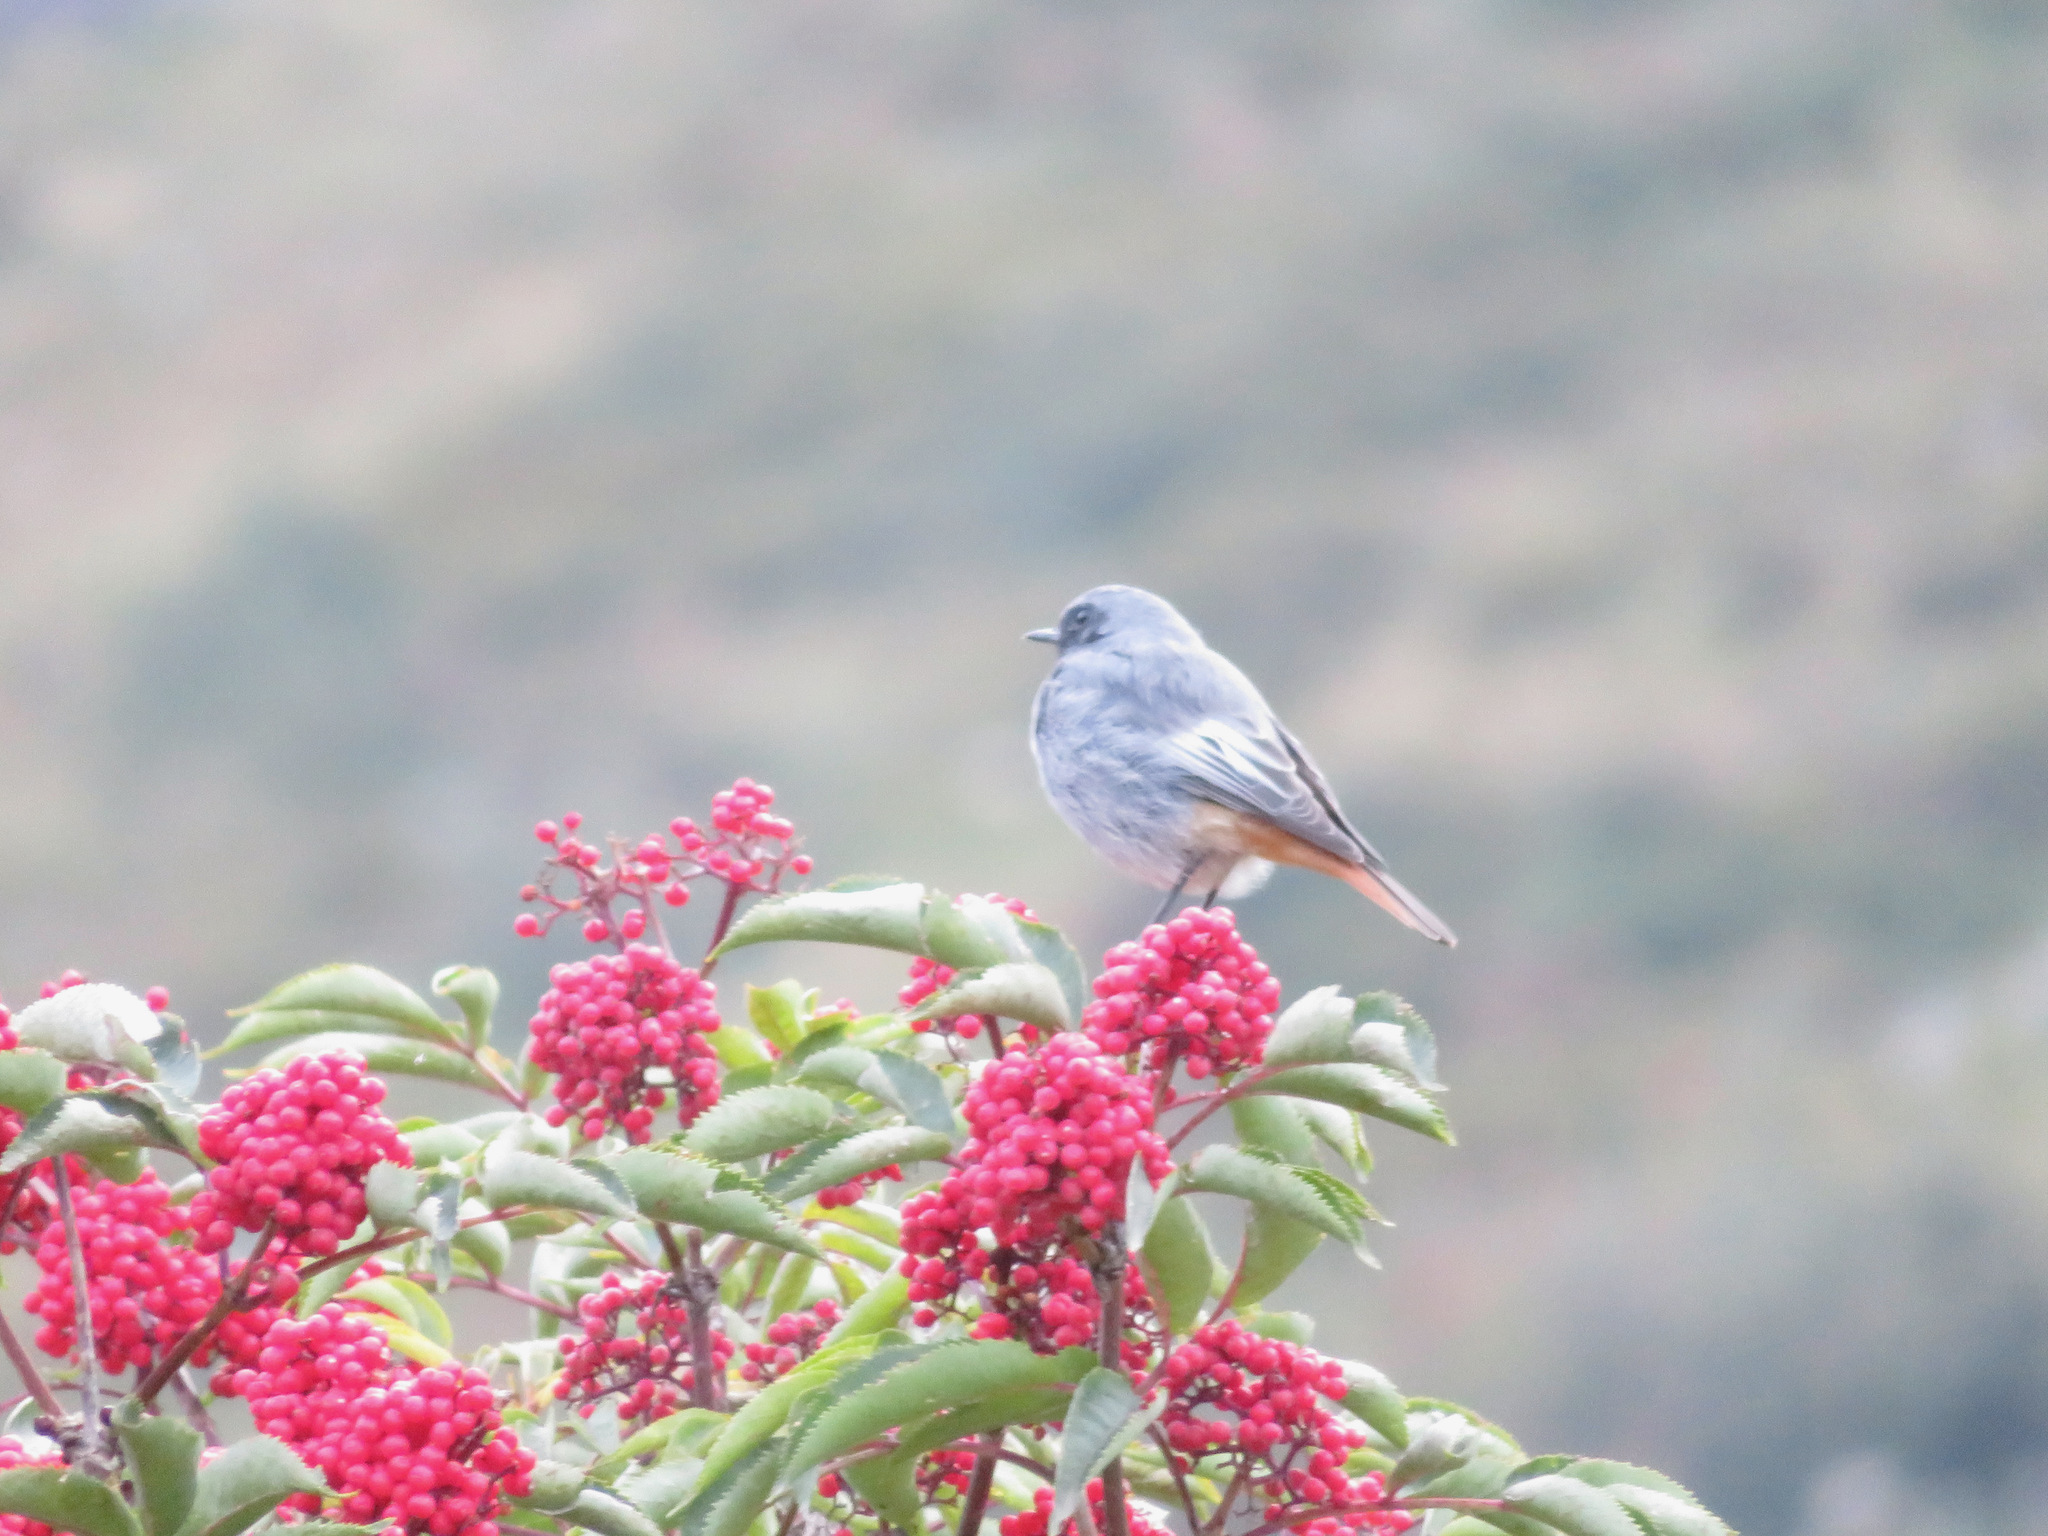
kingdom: Animalia
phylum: Chordata
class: Aves
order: Passeriformes
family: Muscicapidae
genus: Phoenicurus
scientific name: Phoenicurus ochruros
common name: Black redstart
